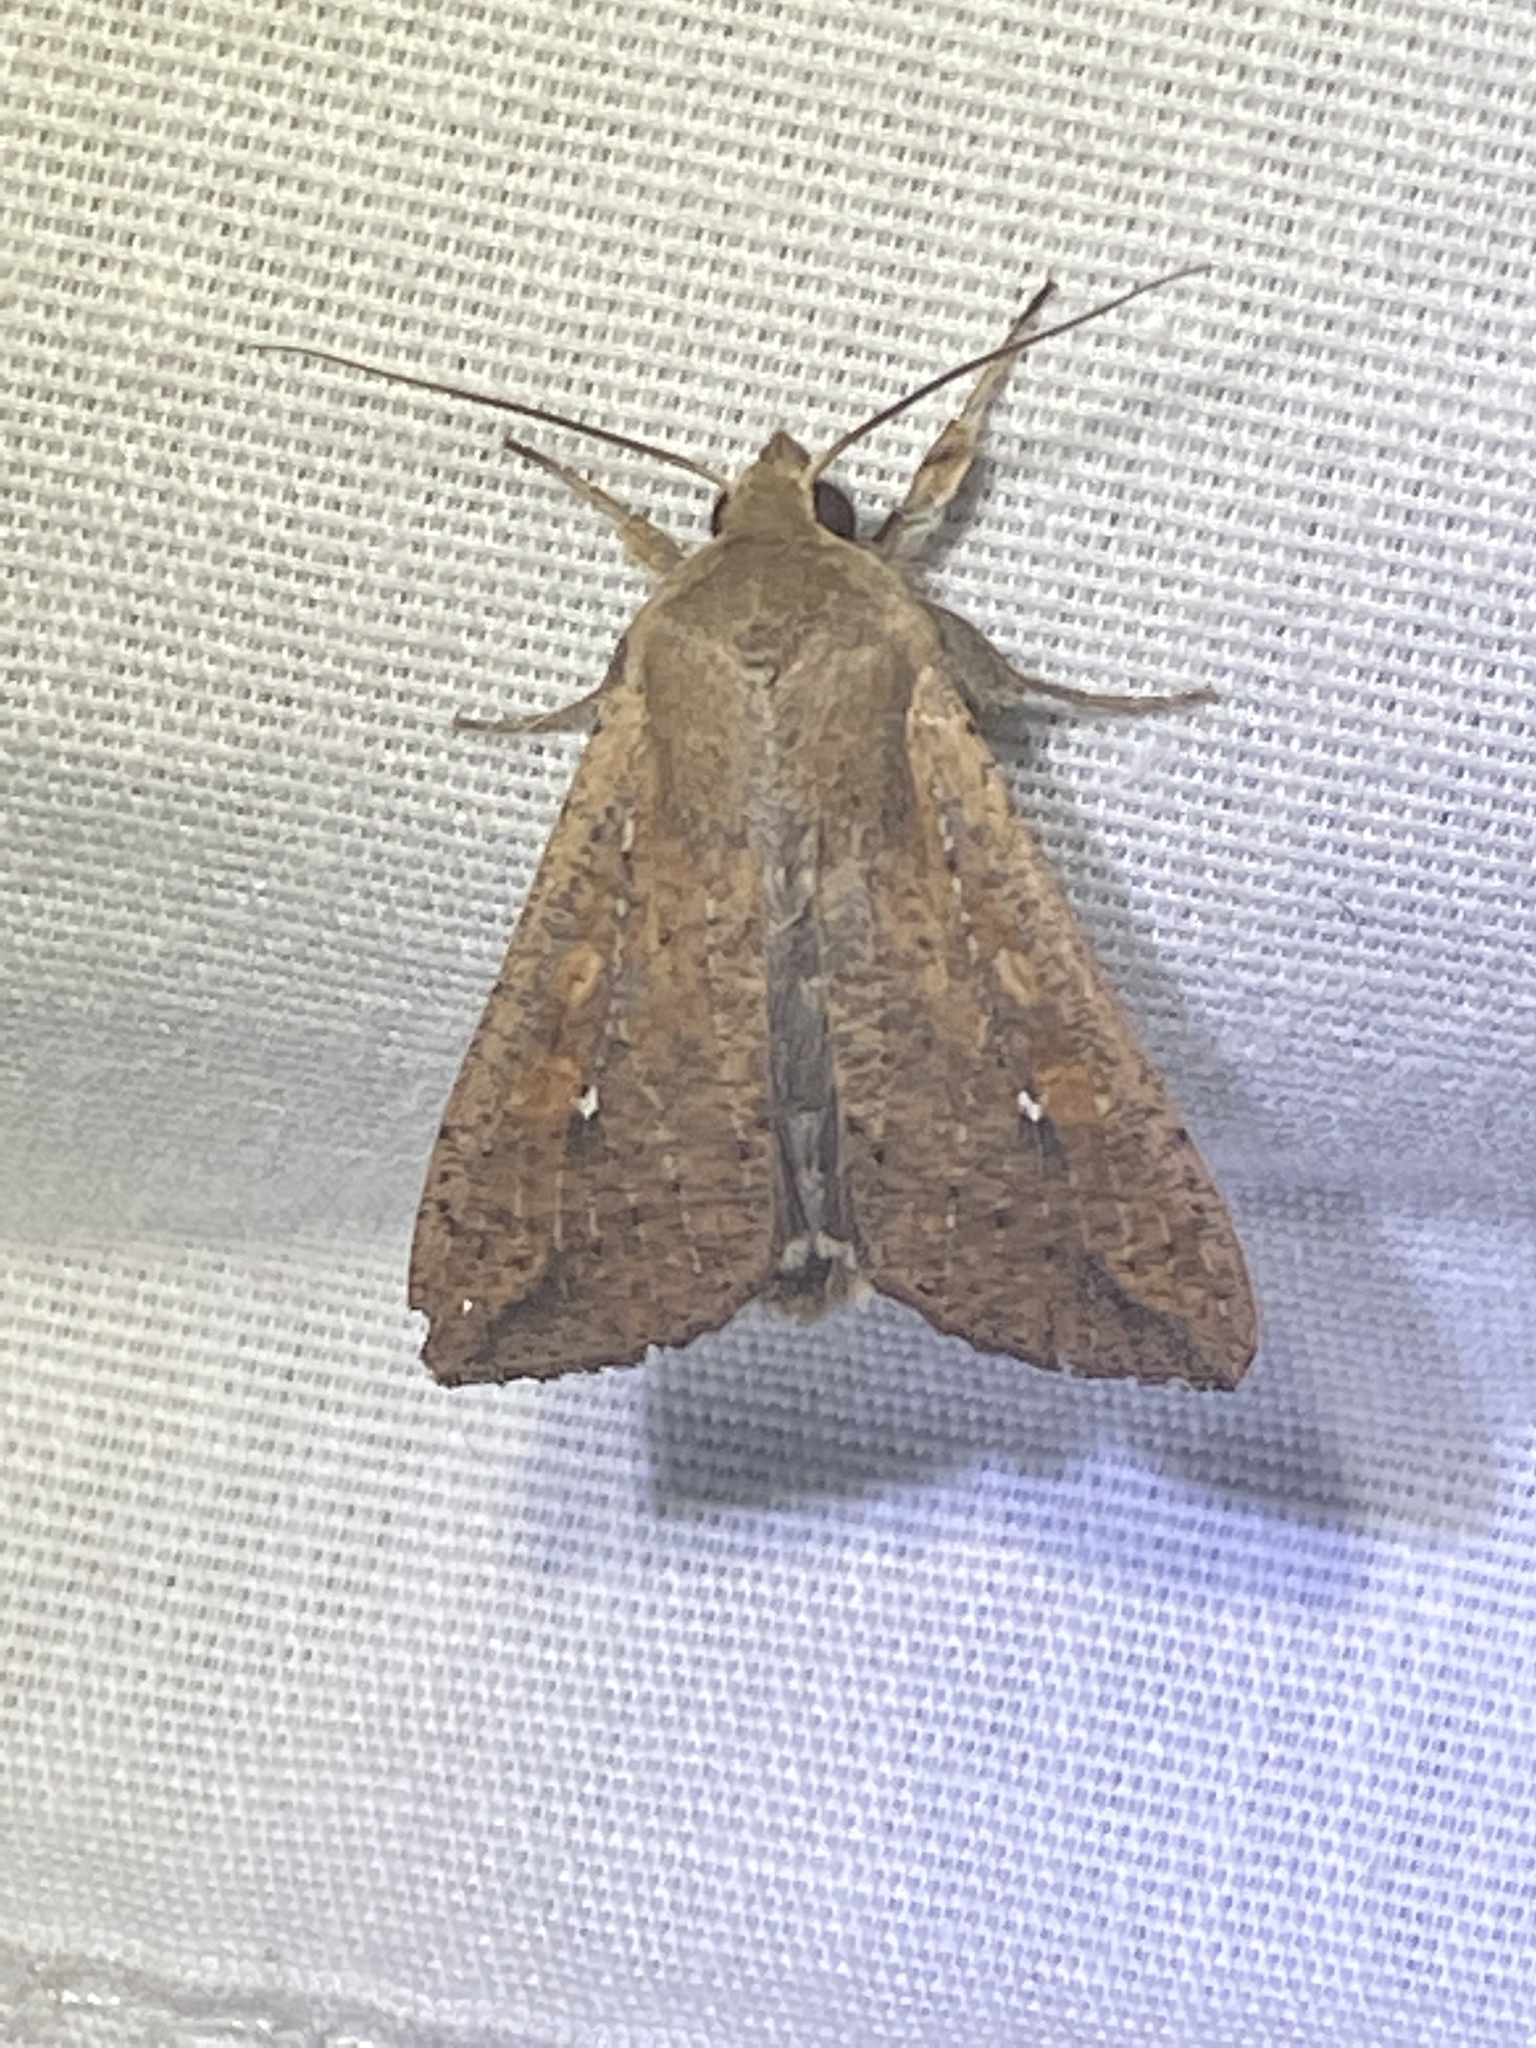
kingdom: Animalia
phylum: Arthropoda
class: Insecta
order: Lepidoptera
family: Noctuidae
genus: Mythimna
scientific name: Mythimna unipuncta
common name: White-speck
